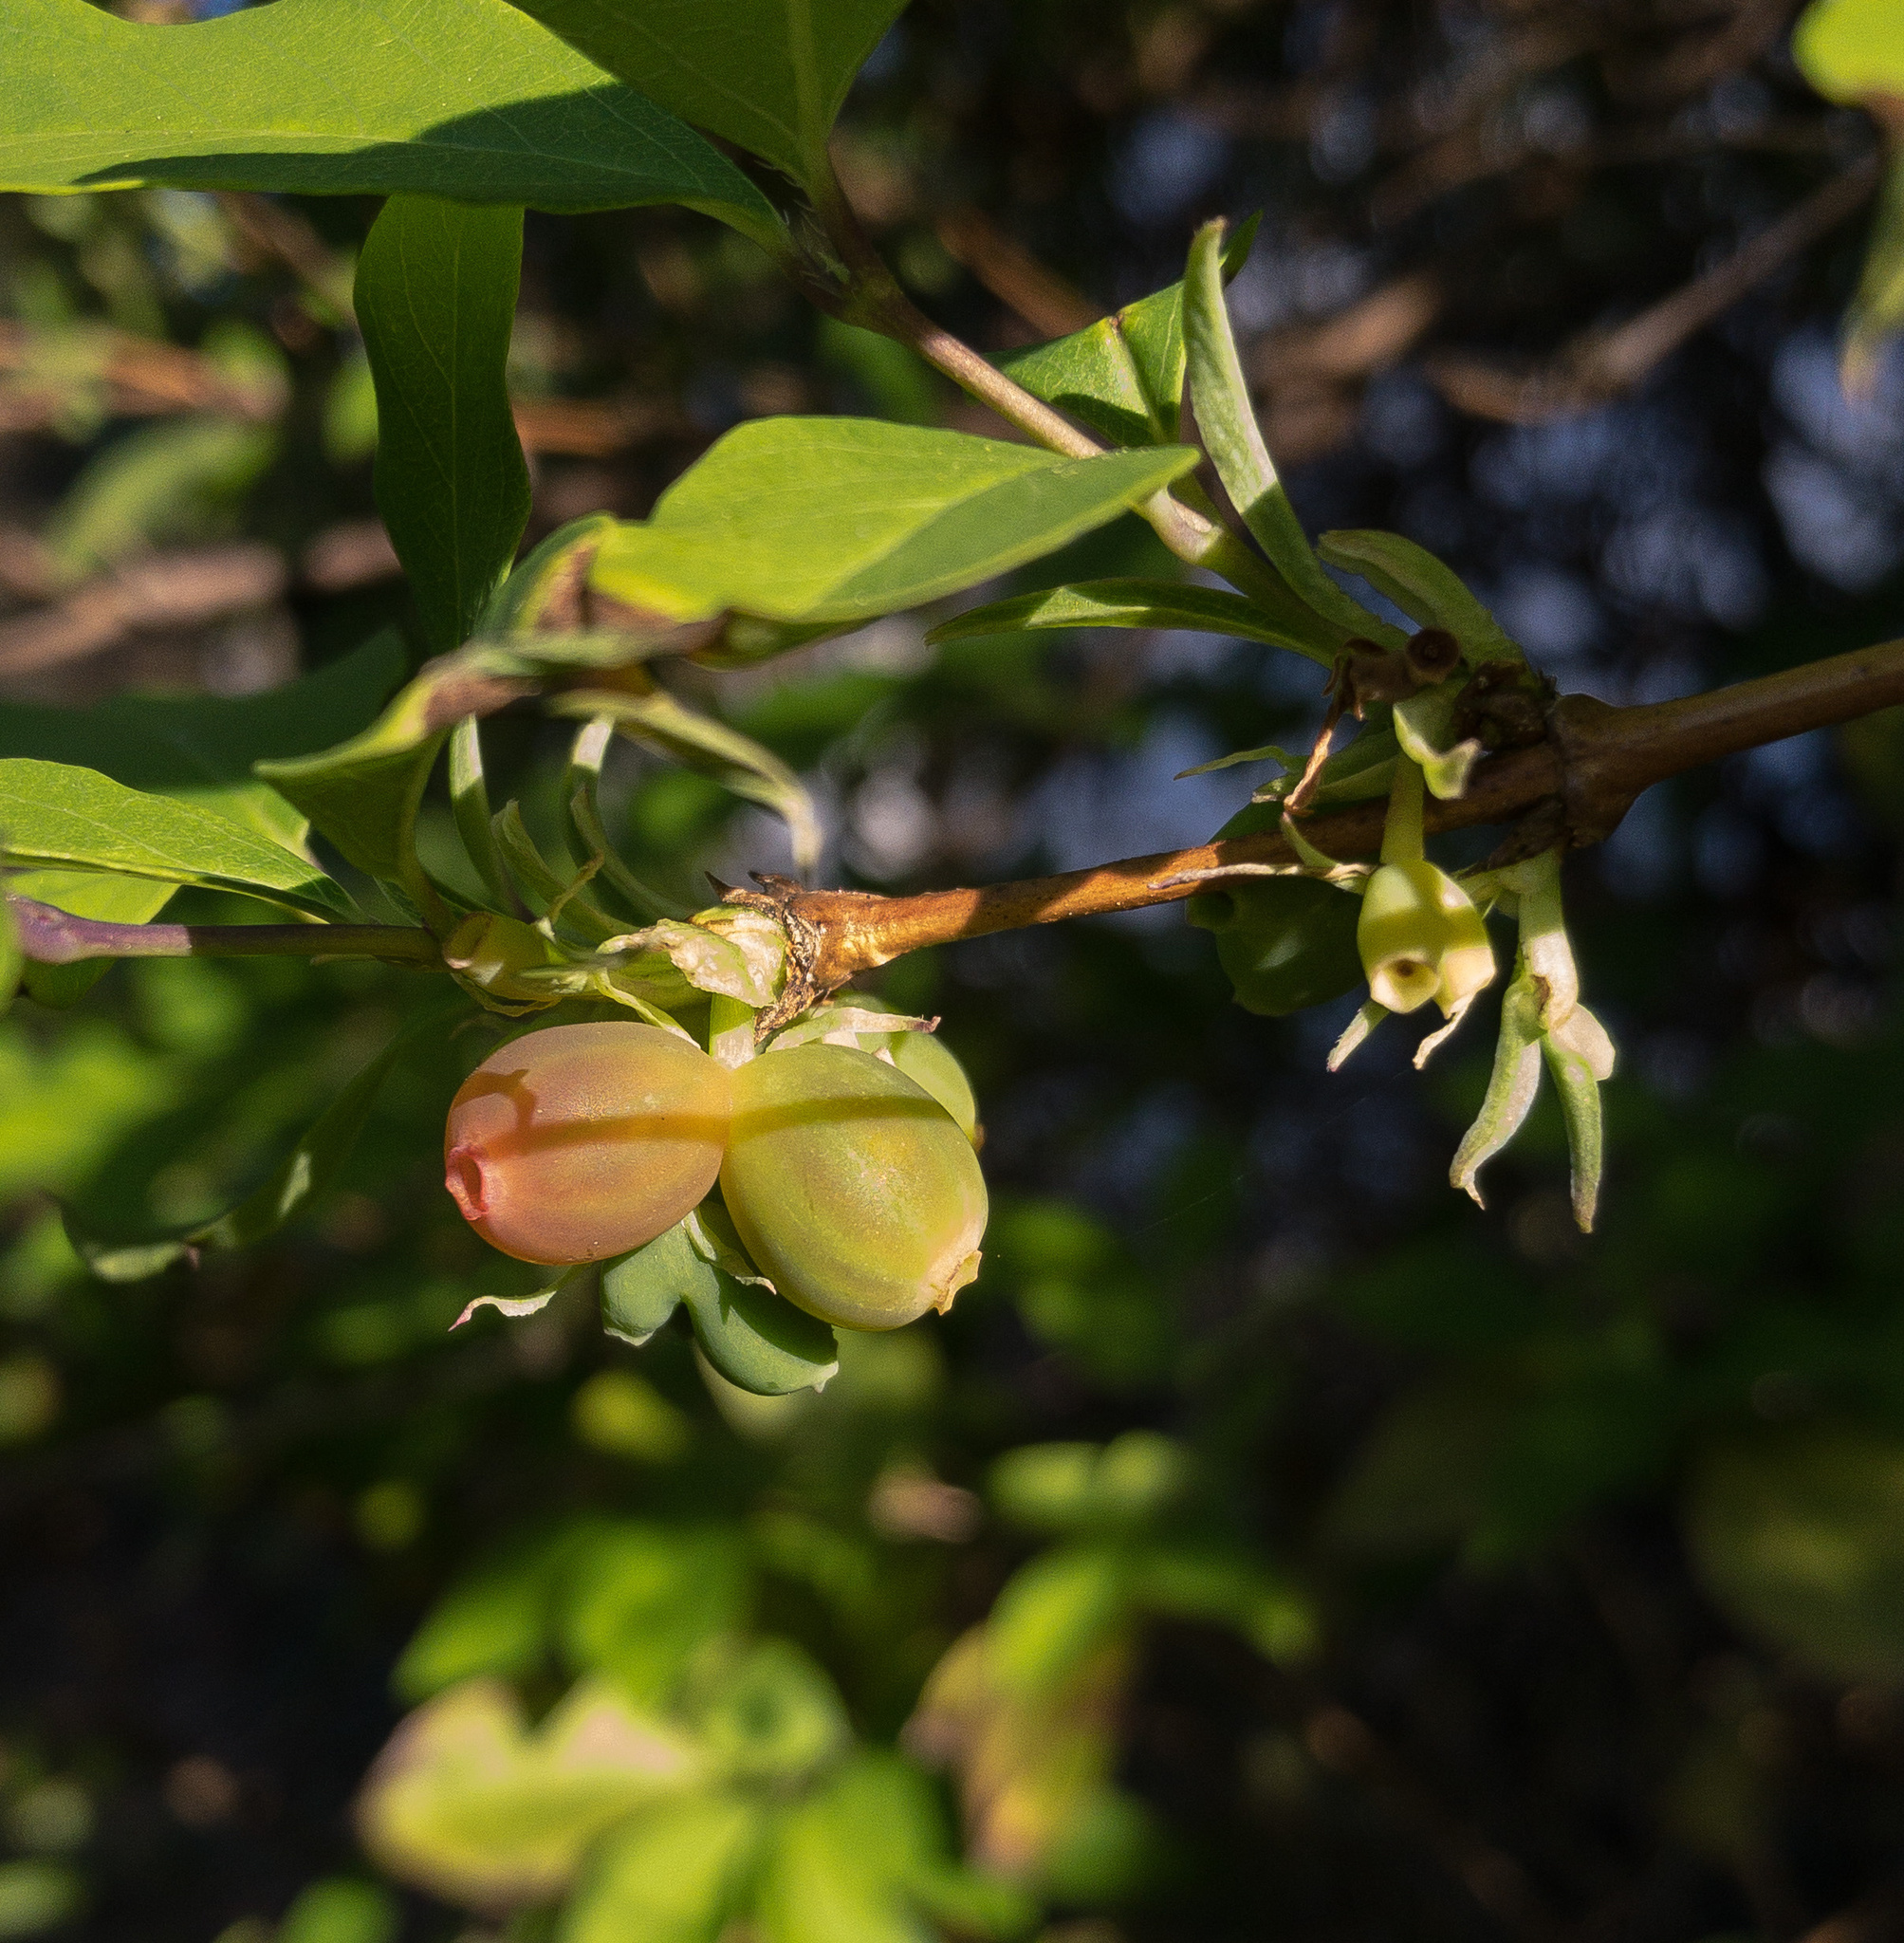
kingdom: Plantae
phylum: Tracheophyta
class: Magnoliopsida
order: Dipsacales
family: Caprifoliaceae
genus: Lonicera
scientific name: Lonicera fragrantissima
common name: Fragrant honeysuckle
